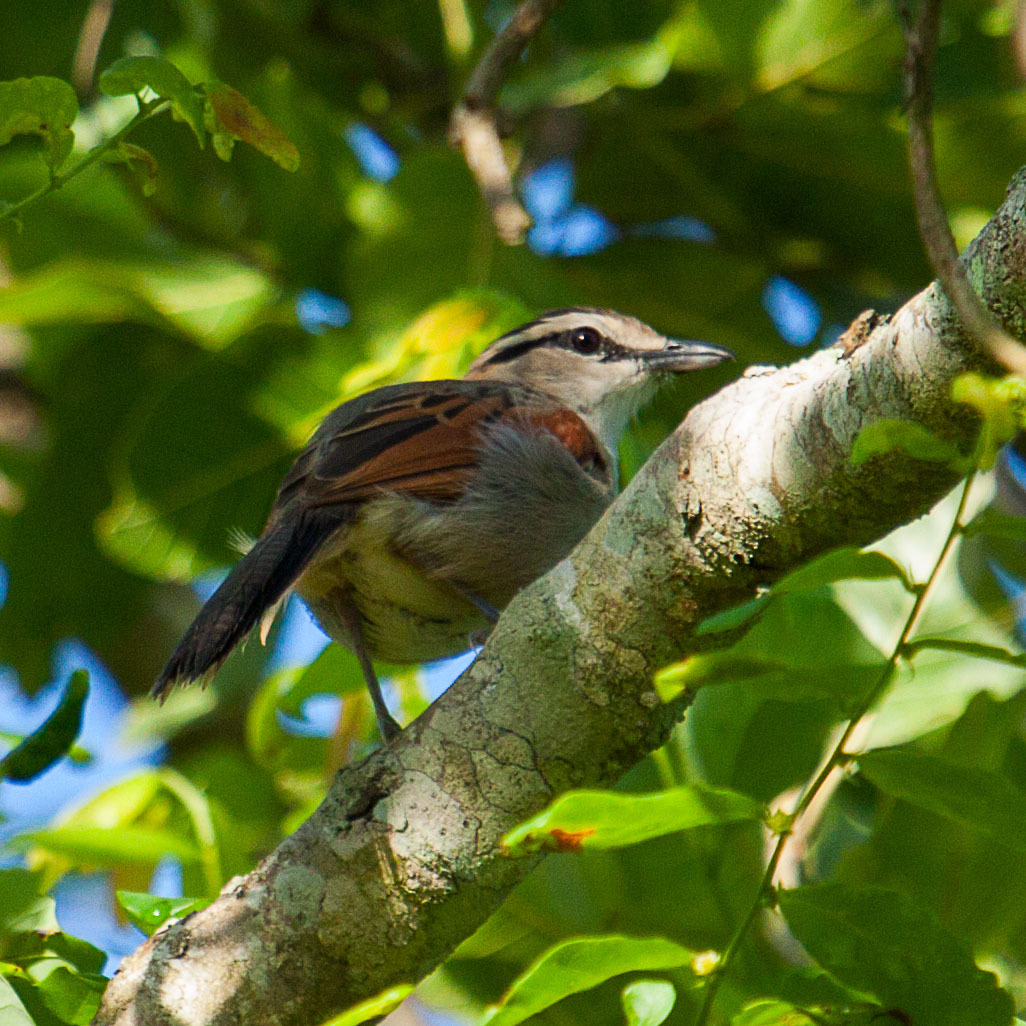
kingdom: Animalia
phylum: Chordata
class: Aves
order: Passeriformes
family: Malaconotidae
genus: Tchagra
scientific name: Tchagra australis
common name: Brown-crowned tchagra
